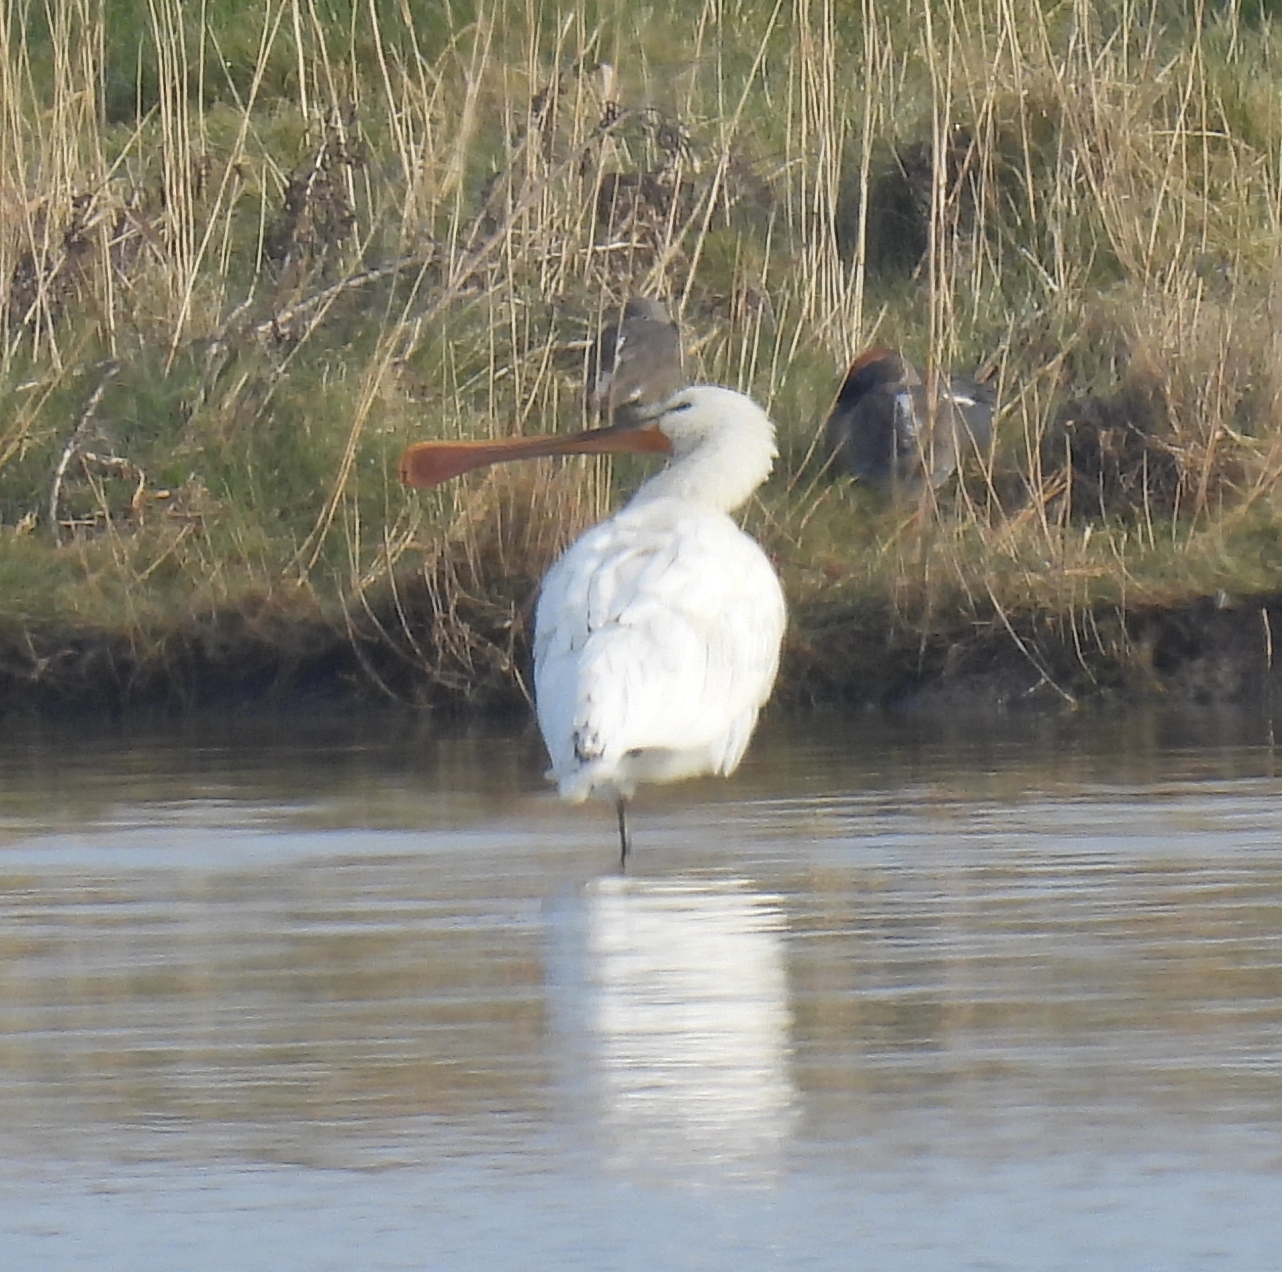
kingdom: Animalia
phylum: Chordata
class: Aves
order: Pelecaniformes
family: Threskiornithidae
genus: Platalea
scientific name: Platalea leucorodia
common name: Eurasian spoonbill
